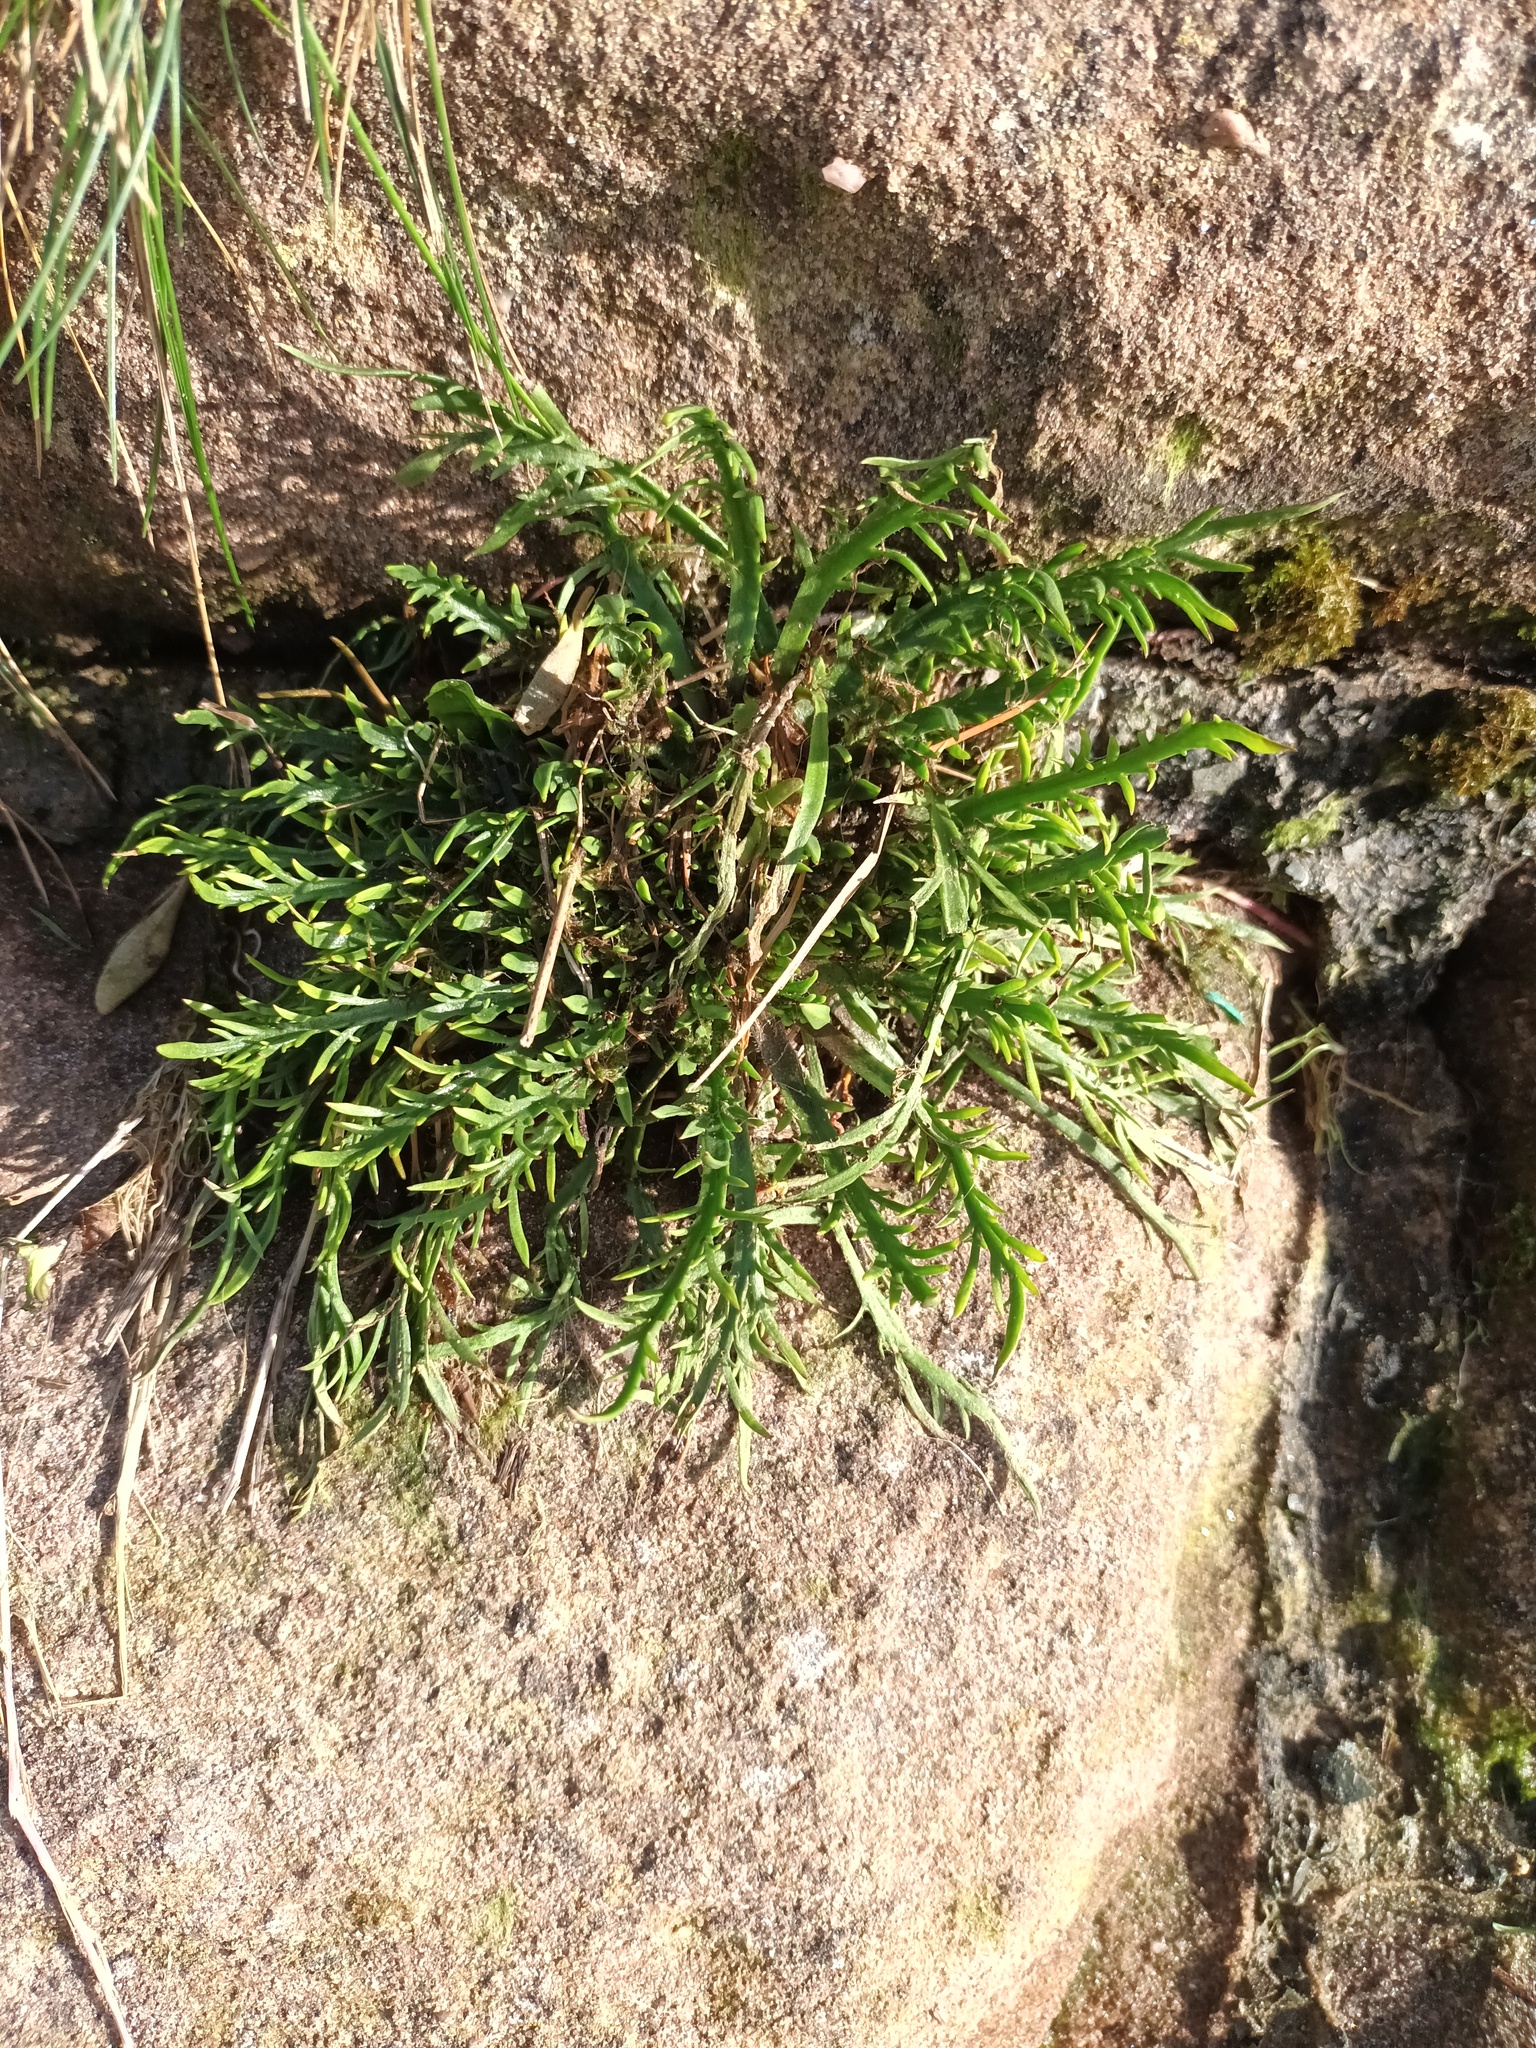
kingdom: Plantae
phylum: Tracheophyta
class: Magnoliopsida
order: Lamiales
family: Plantaginaceae
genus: Plantago
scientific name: Plantago coronopus
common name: Buck's-horn plantain
